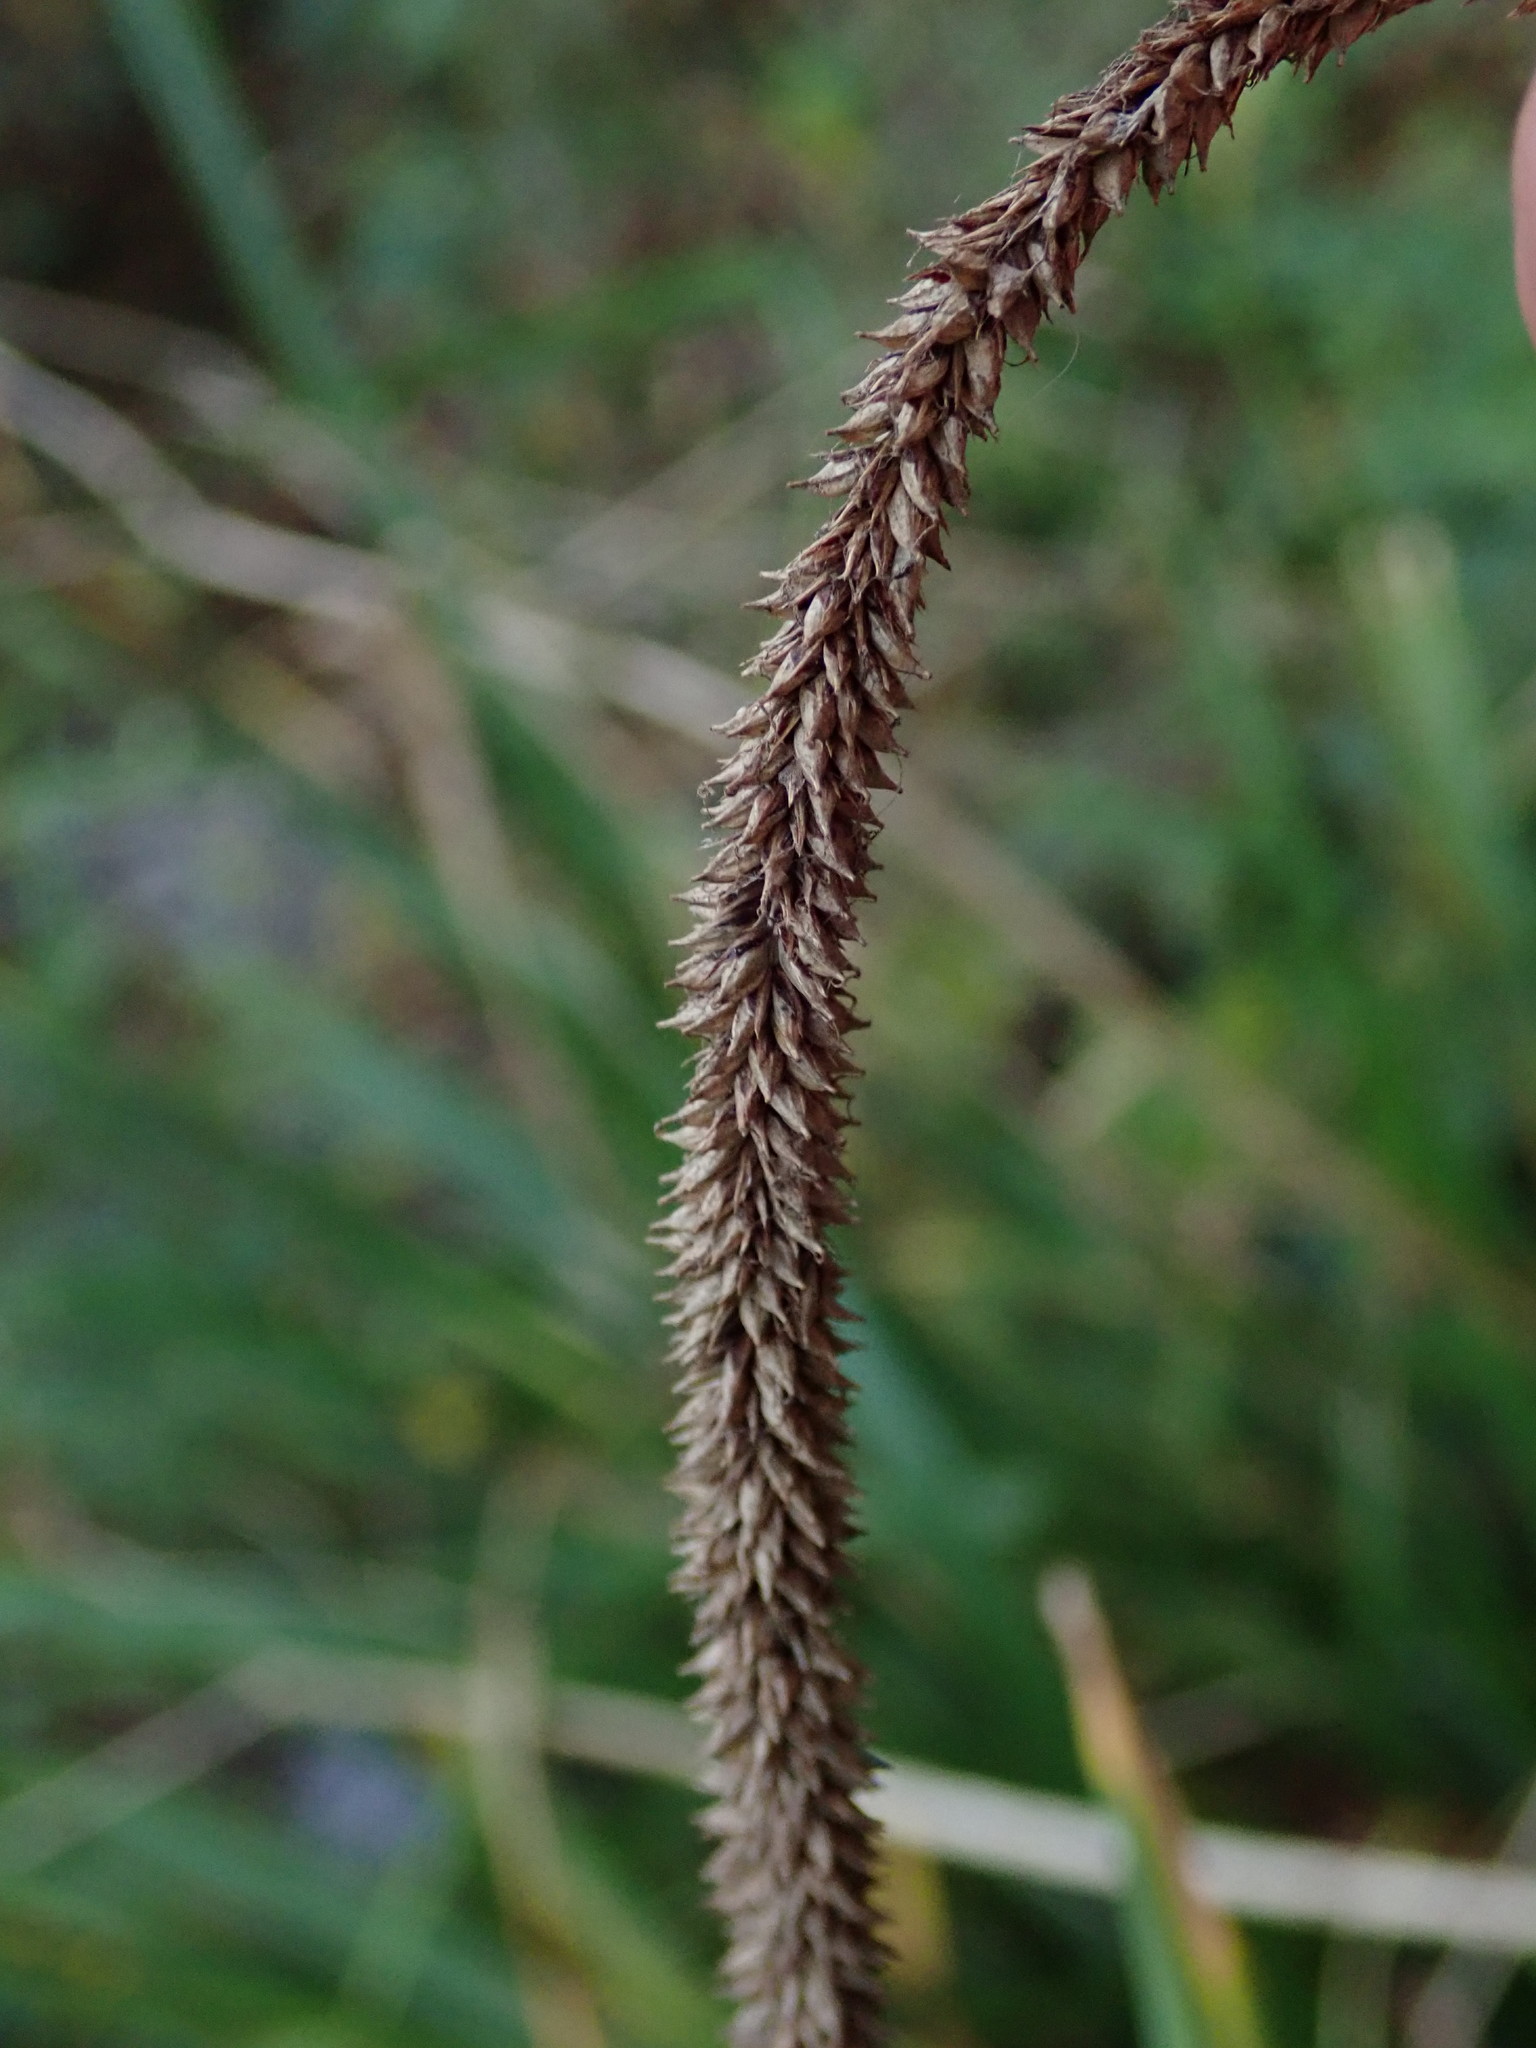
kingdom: Plantae
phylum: Tracheophyta
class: Liliopsida
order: Poales
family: Cyperaceae
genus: Carex
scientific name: Carex pendula
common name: Pendulous sedge
